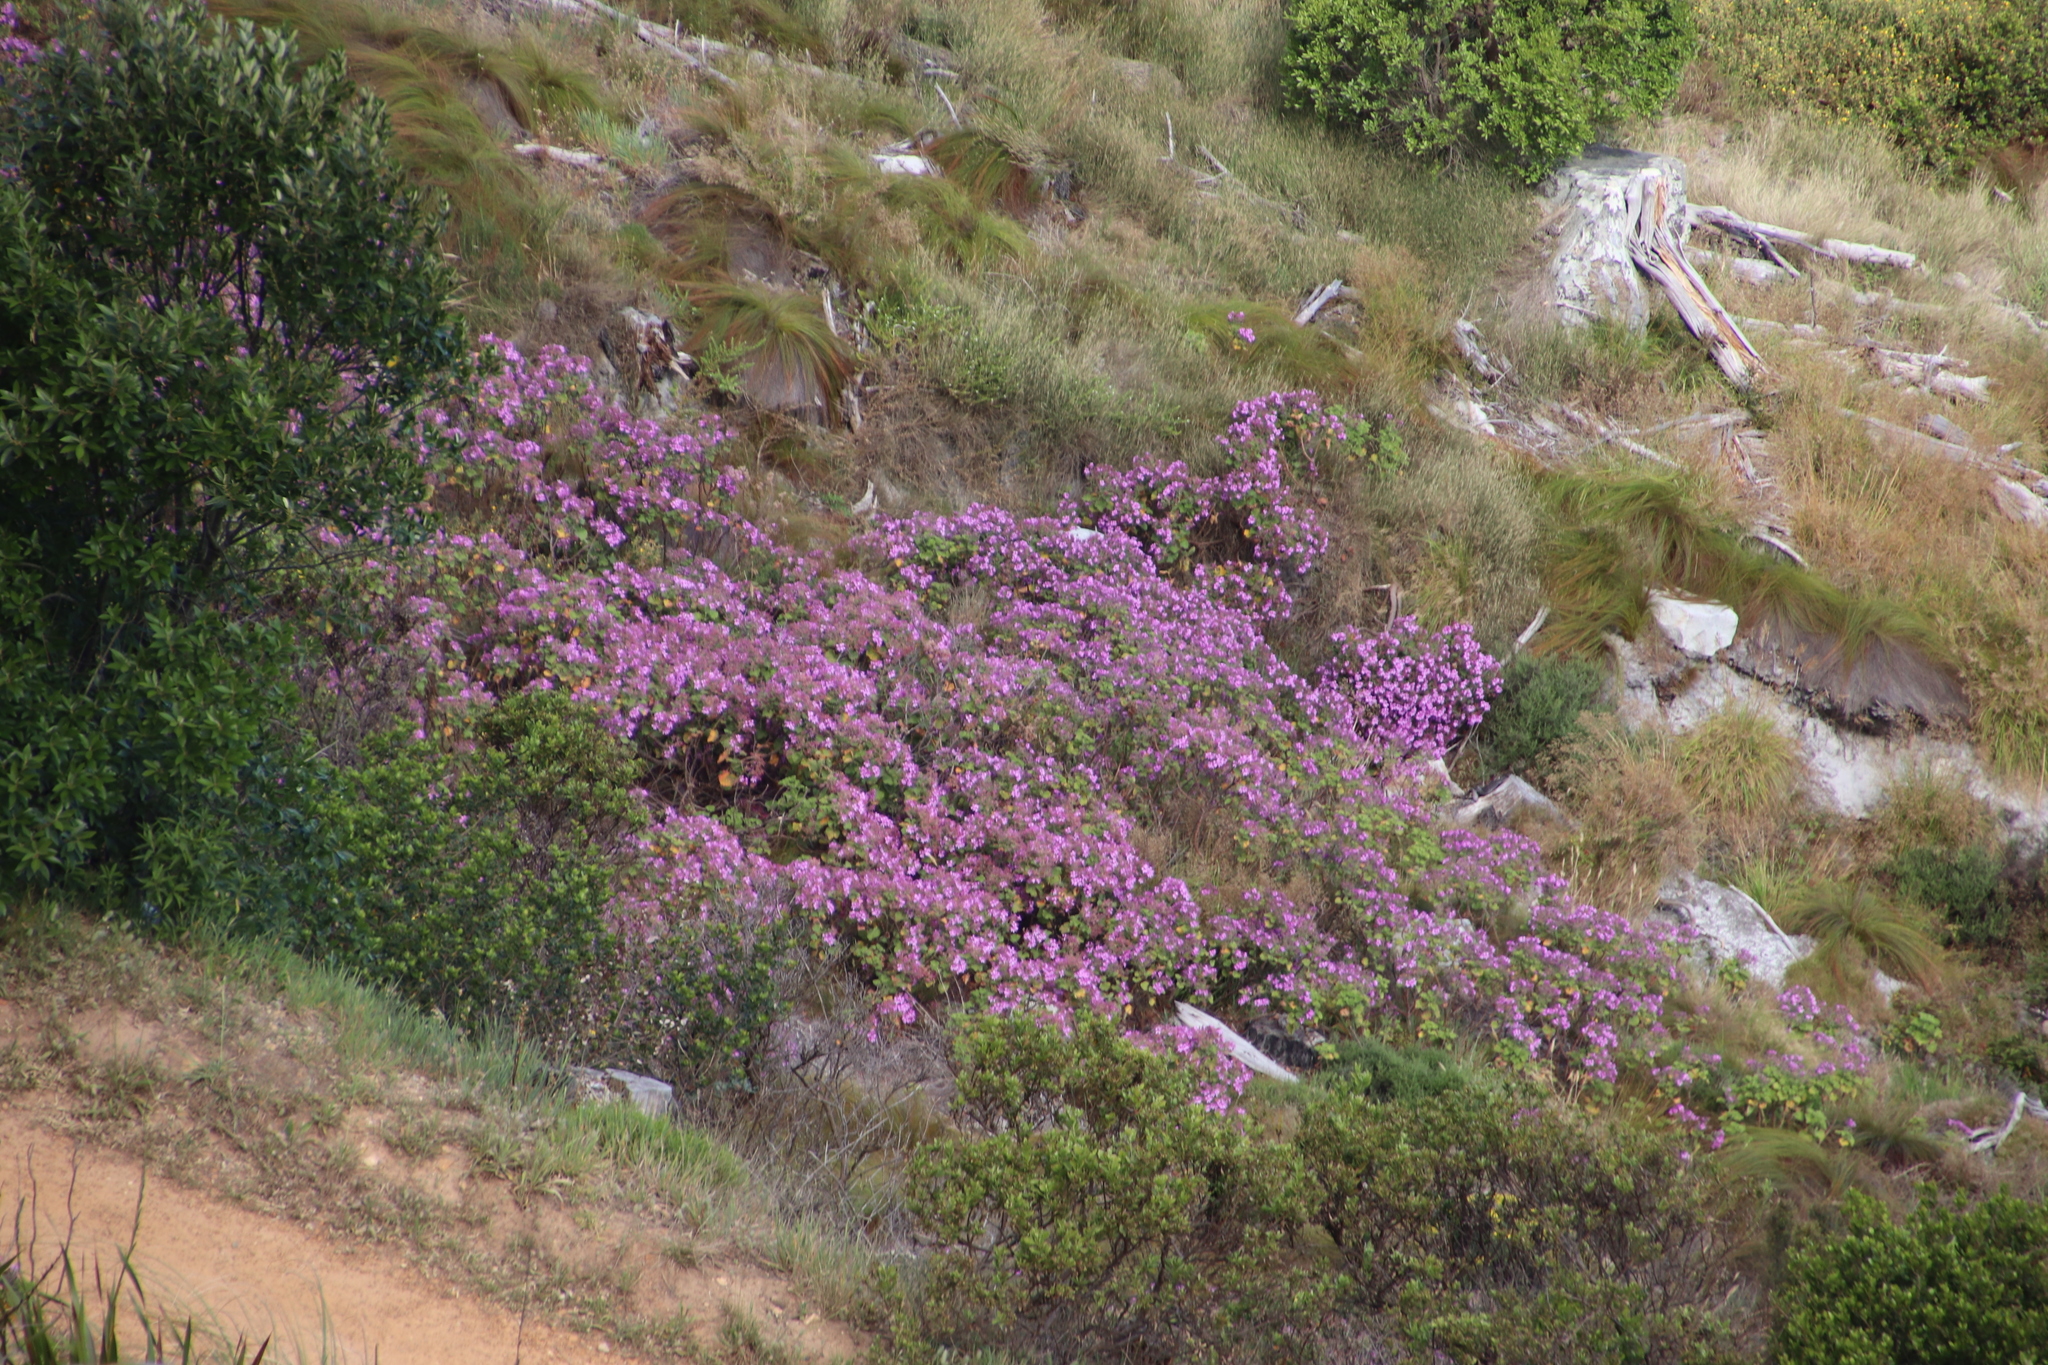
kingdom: Plantae
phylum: Tracheophyta
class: Magnoliopsida
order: Geraniales
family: Geraniaceae
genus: Pelargonium
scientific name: Pelargonium cucullatum
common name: Tree pelargonium
